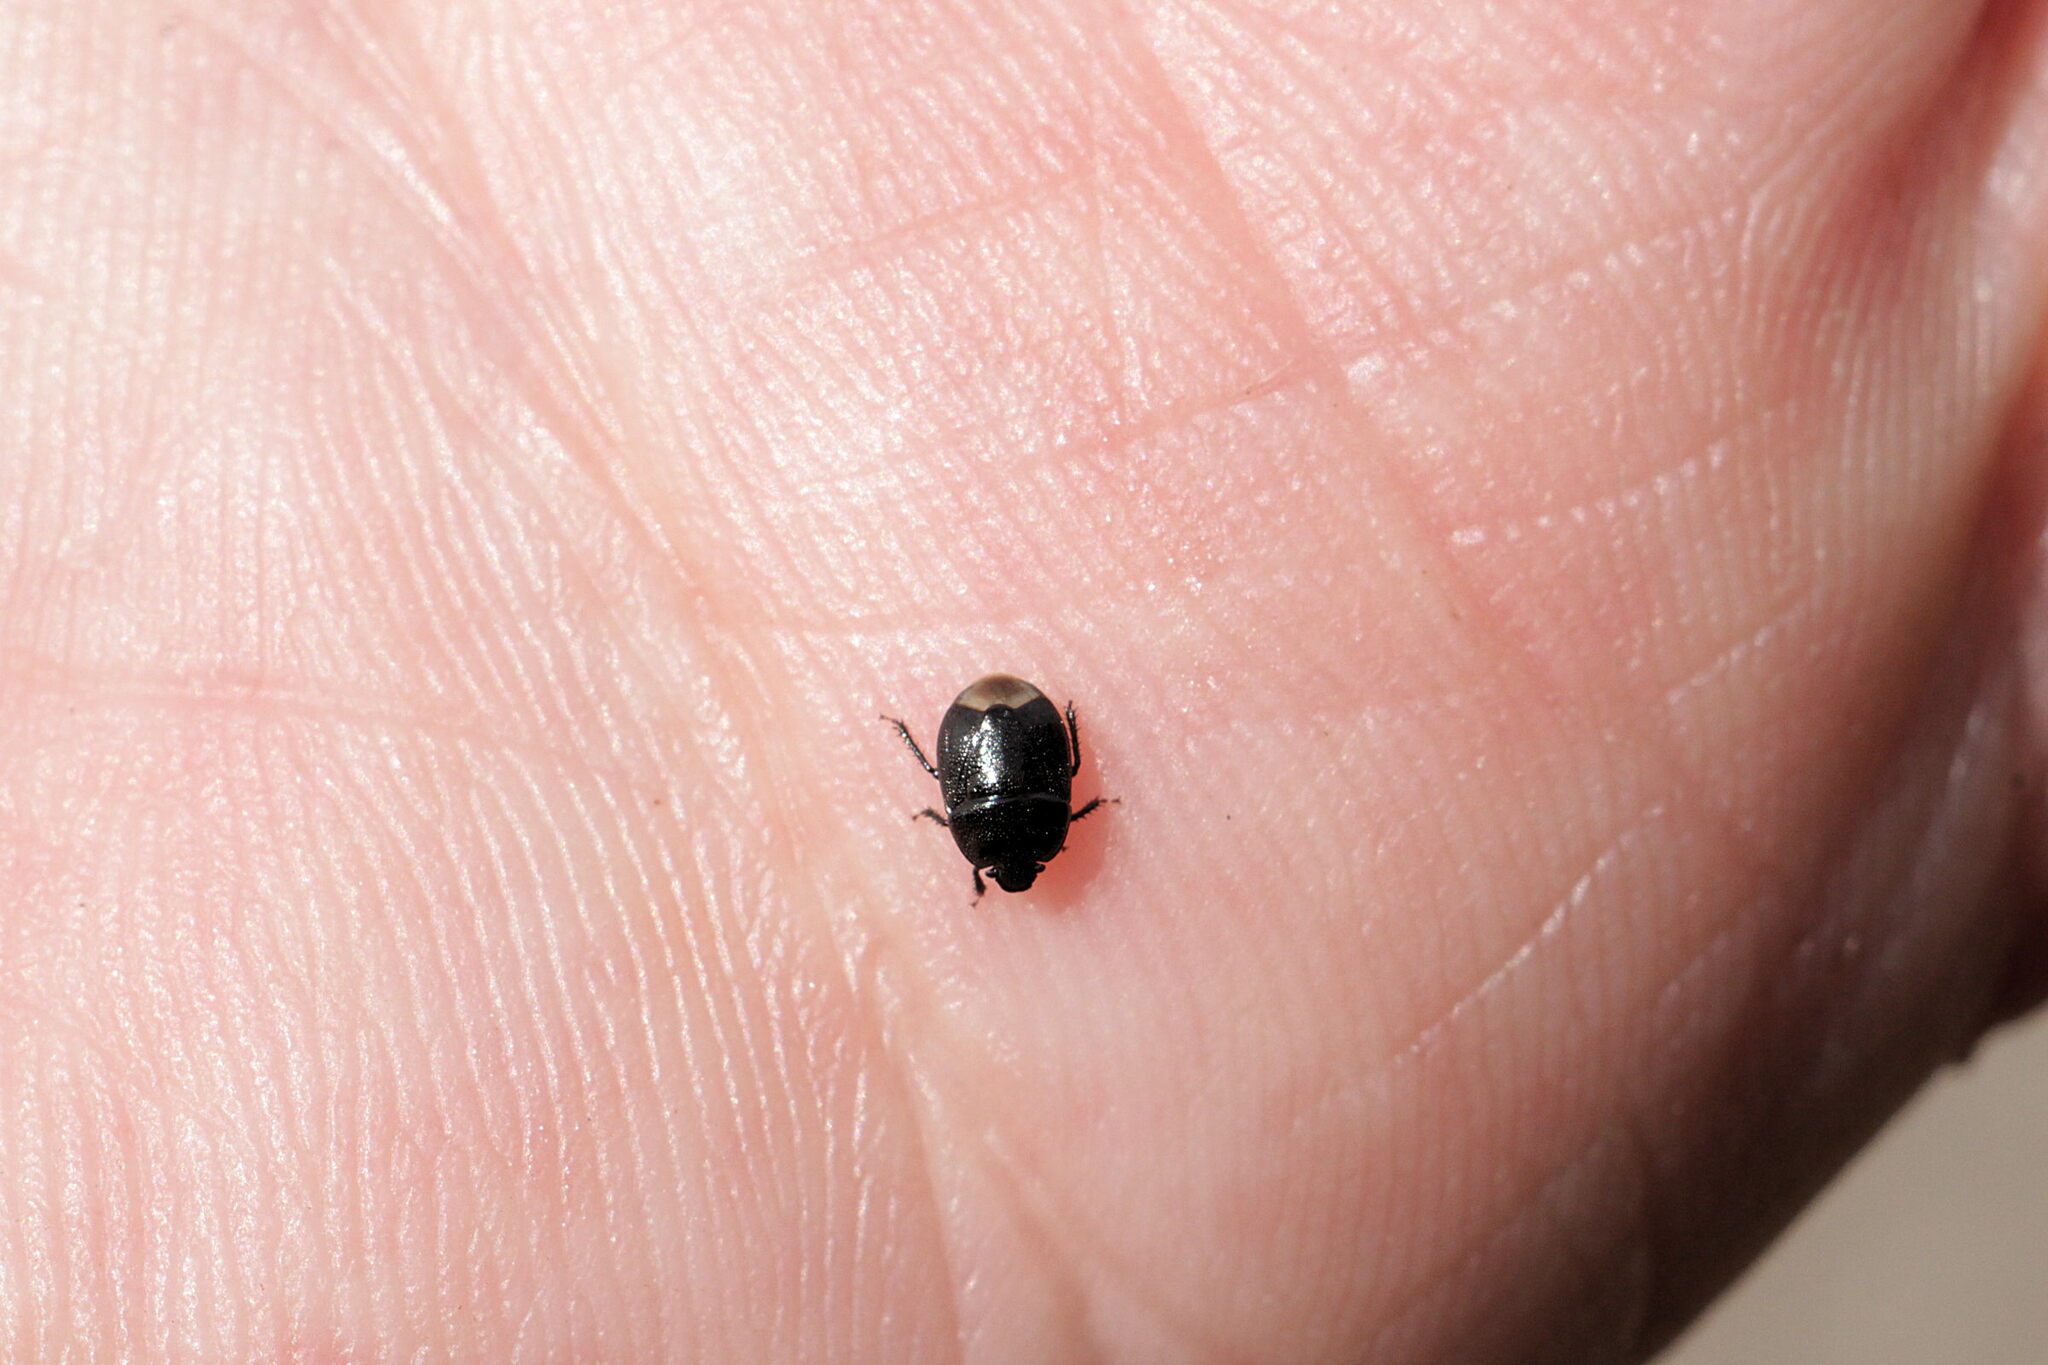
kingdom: Animalia
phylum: Arthropoda
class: Insecta
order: Hemiptera
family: Cydnidae
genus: Legnotus
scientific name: Legnotus picipes
